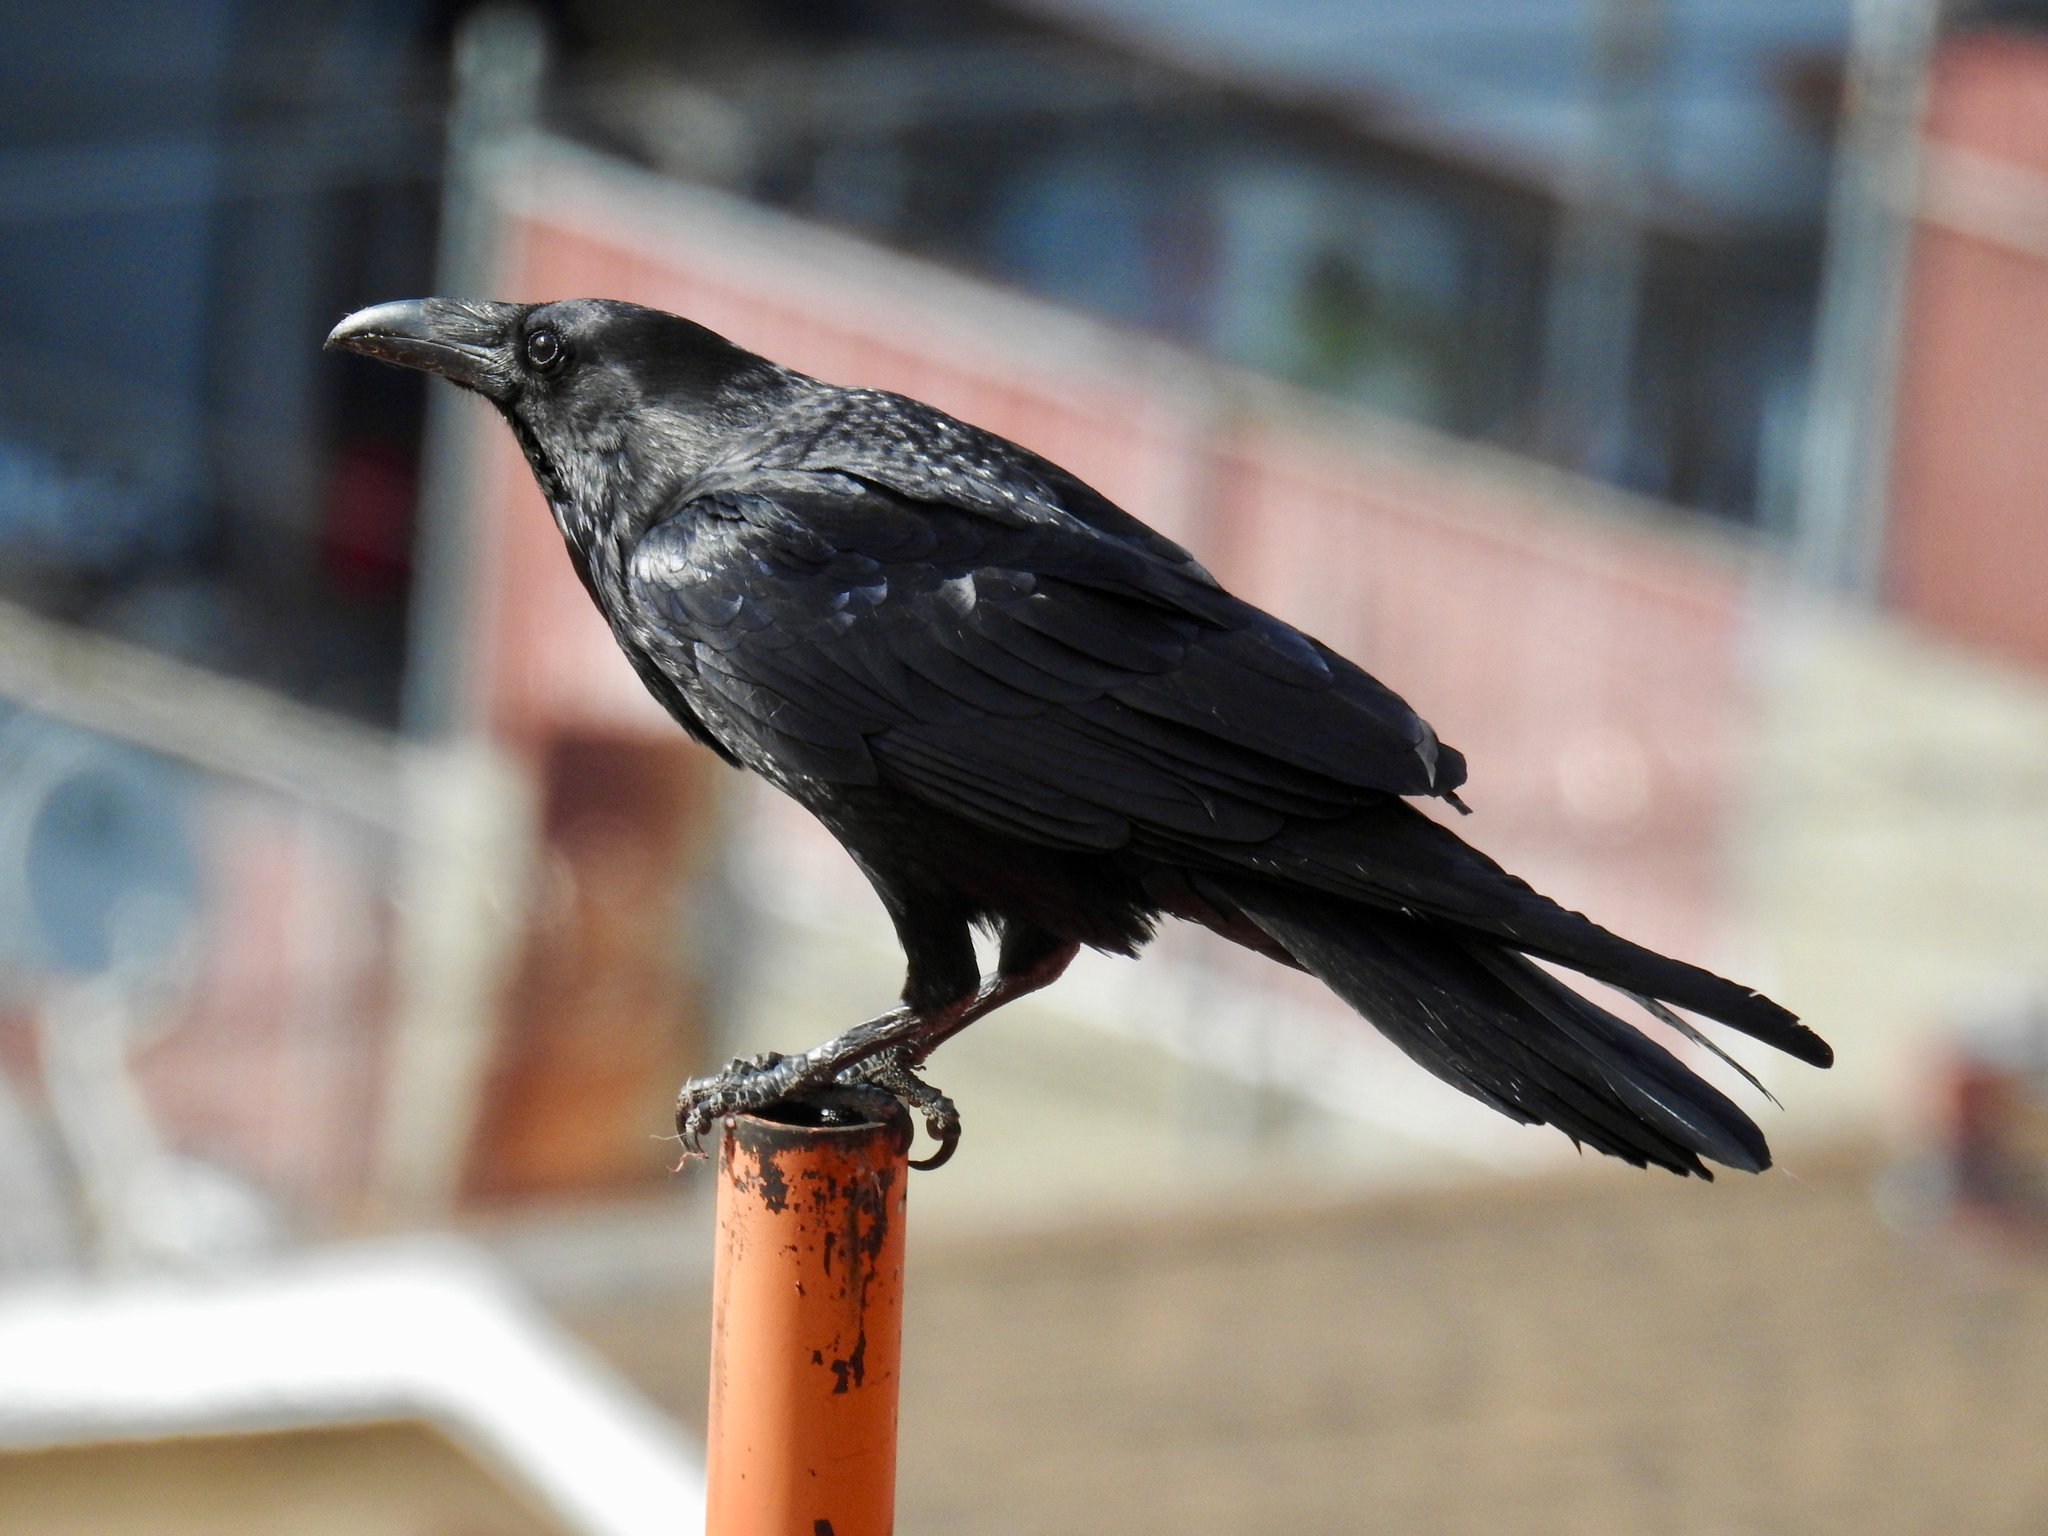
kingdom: Animalia
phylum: Chordata
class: Aves
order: Passeriformes
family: Corvidae
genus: Corvus
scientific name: Corvus corax
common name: Common raven
